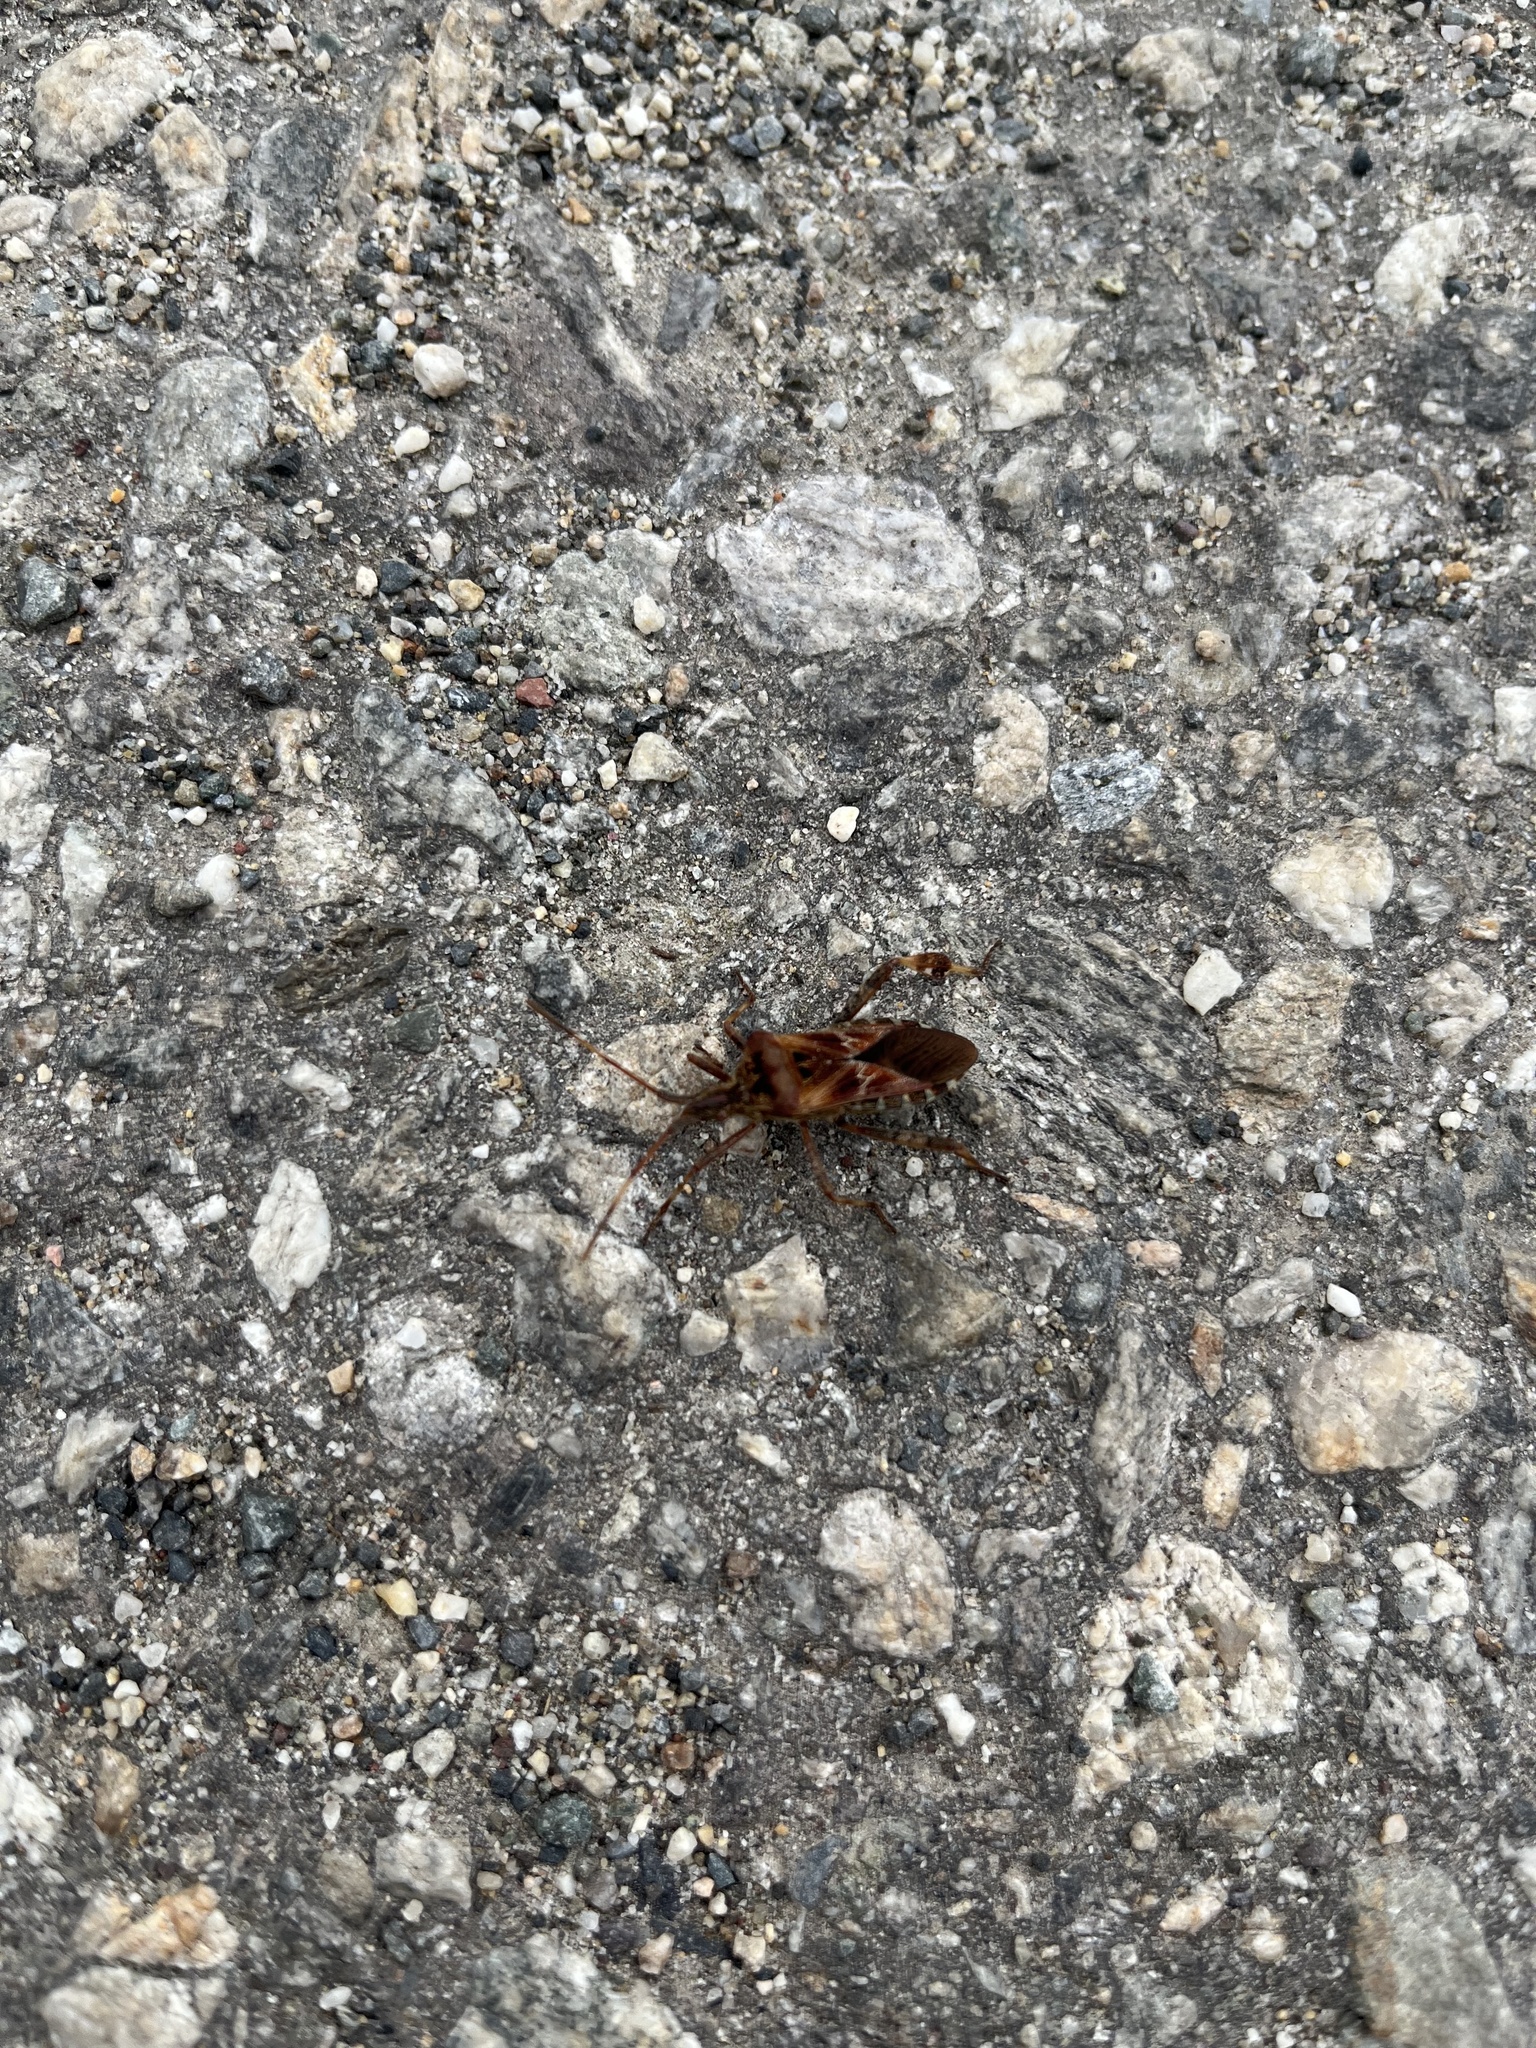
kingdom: Animalia
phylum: Arthropoda
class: Insecta
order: Hemiptera
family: Coreidae
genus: Leptoglossus
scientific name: Leptoglossus occidentalis
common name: Western conifer-seed bug
